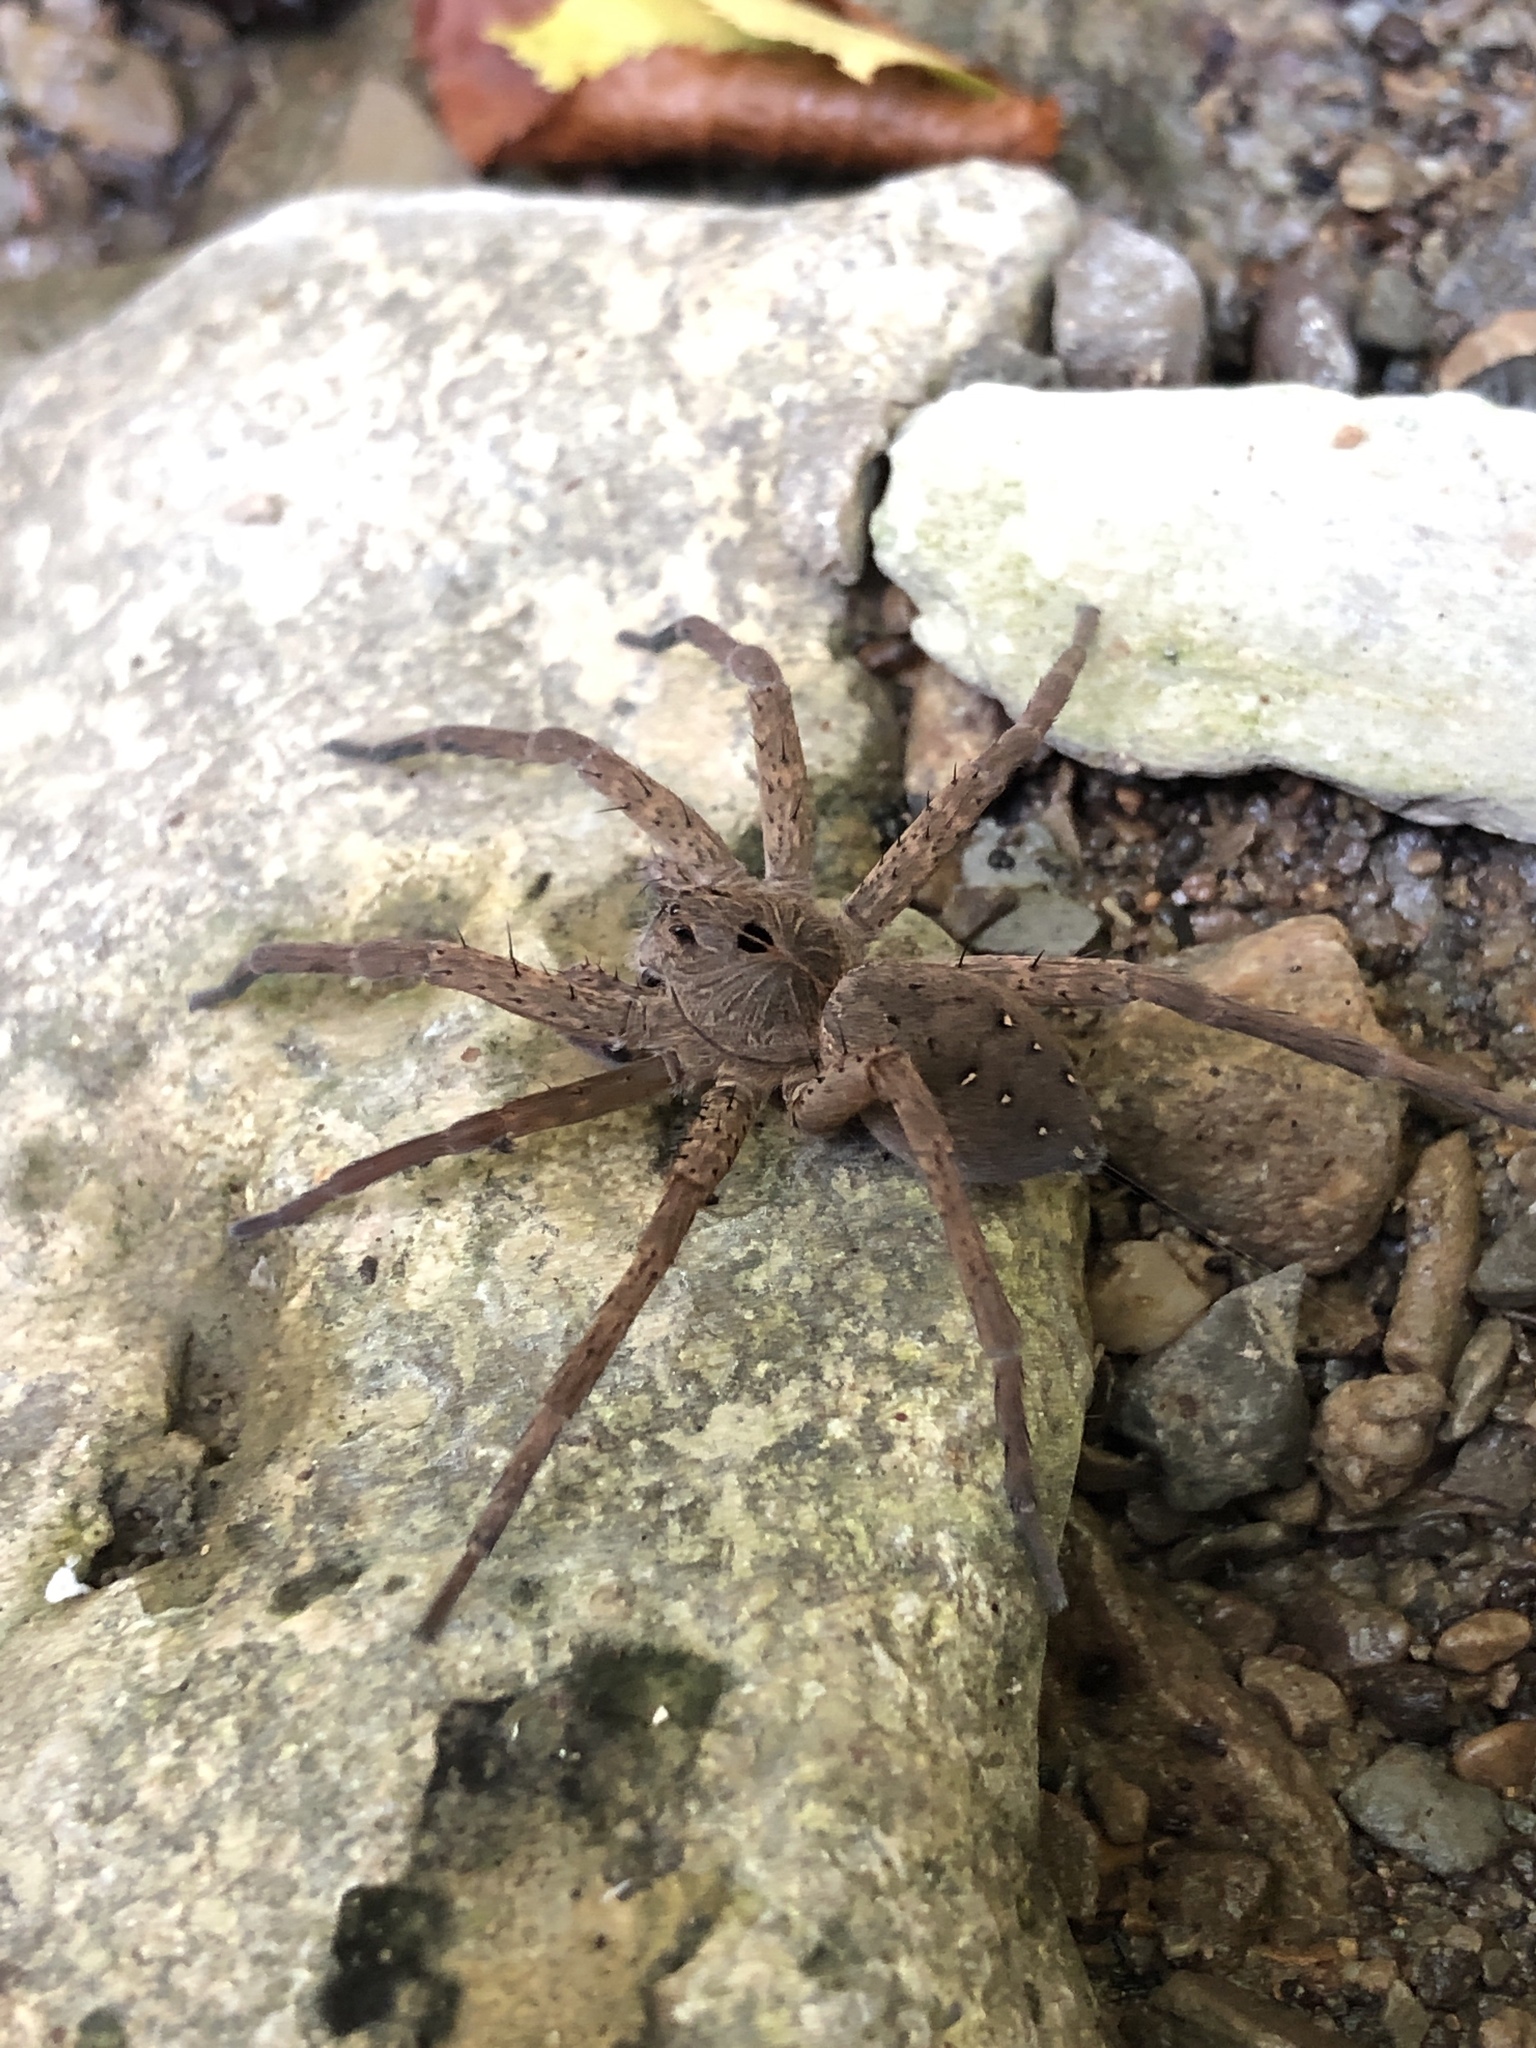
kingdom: Animalia
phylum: Arthropoda
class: Arachnida
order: Araneae
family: Pisauridae
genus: Dolomedes
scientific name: Dolomedes vittatus
